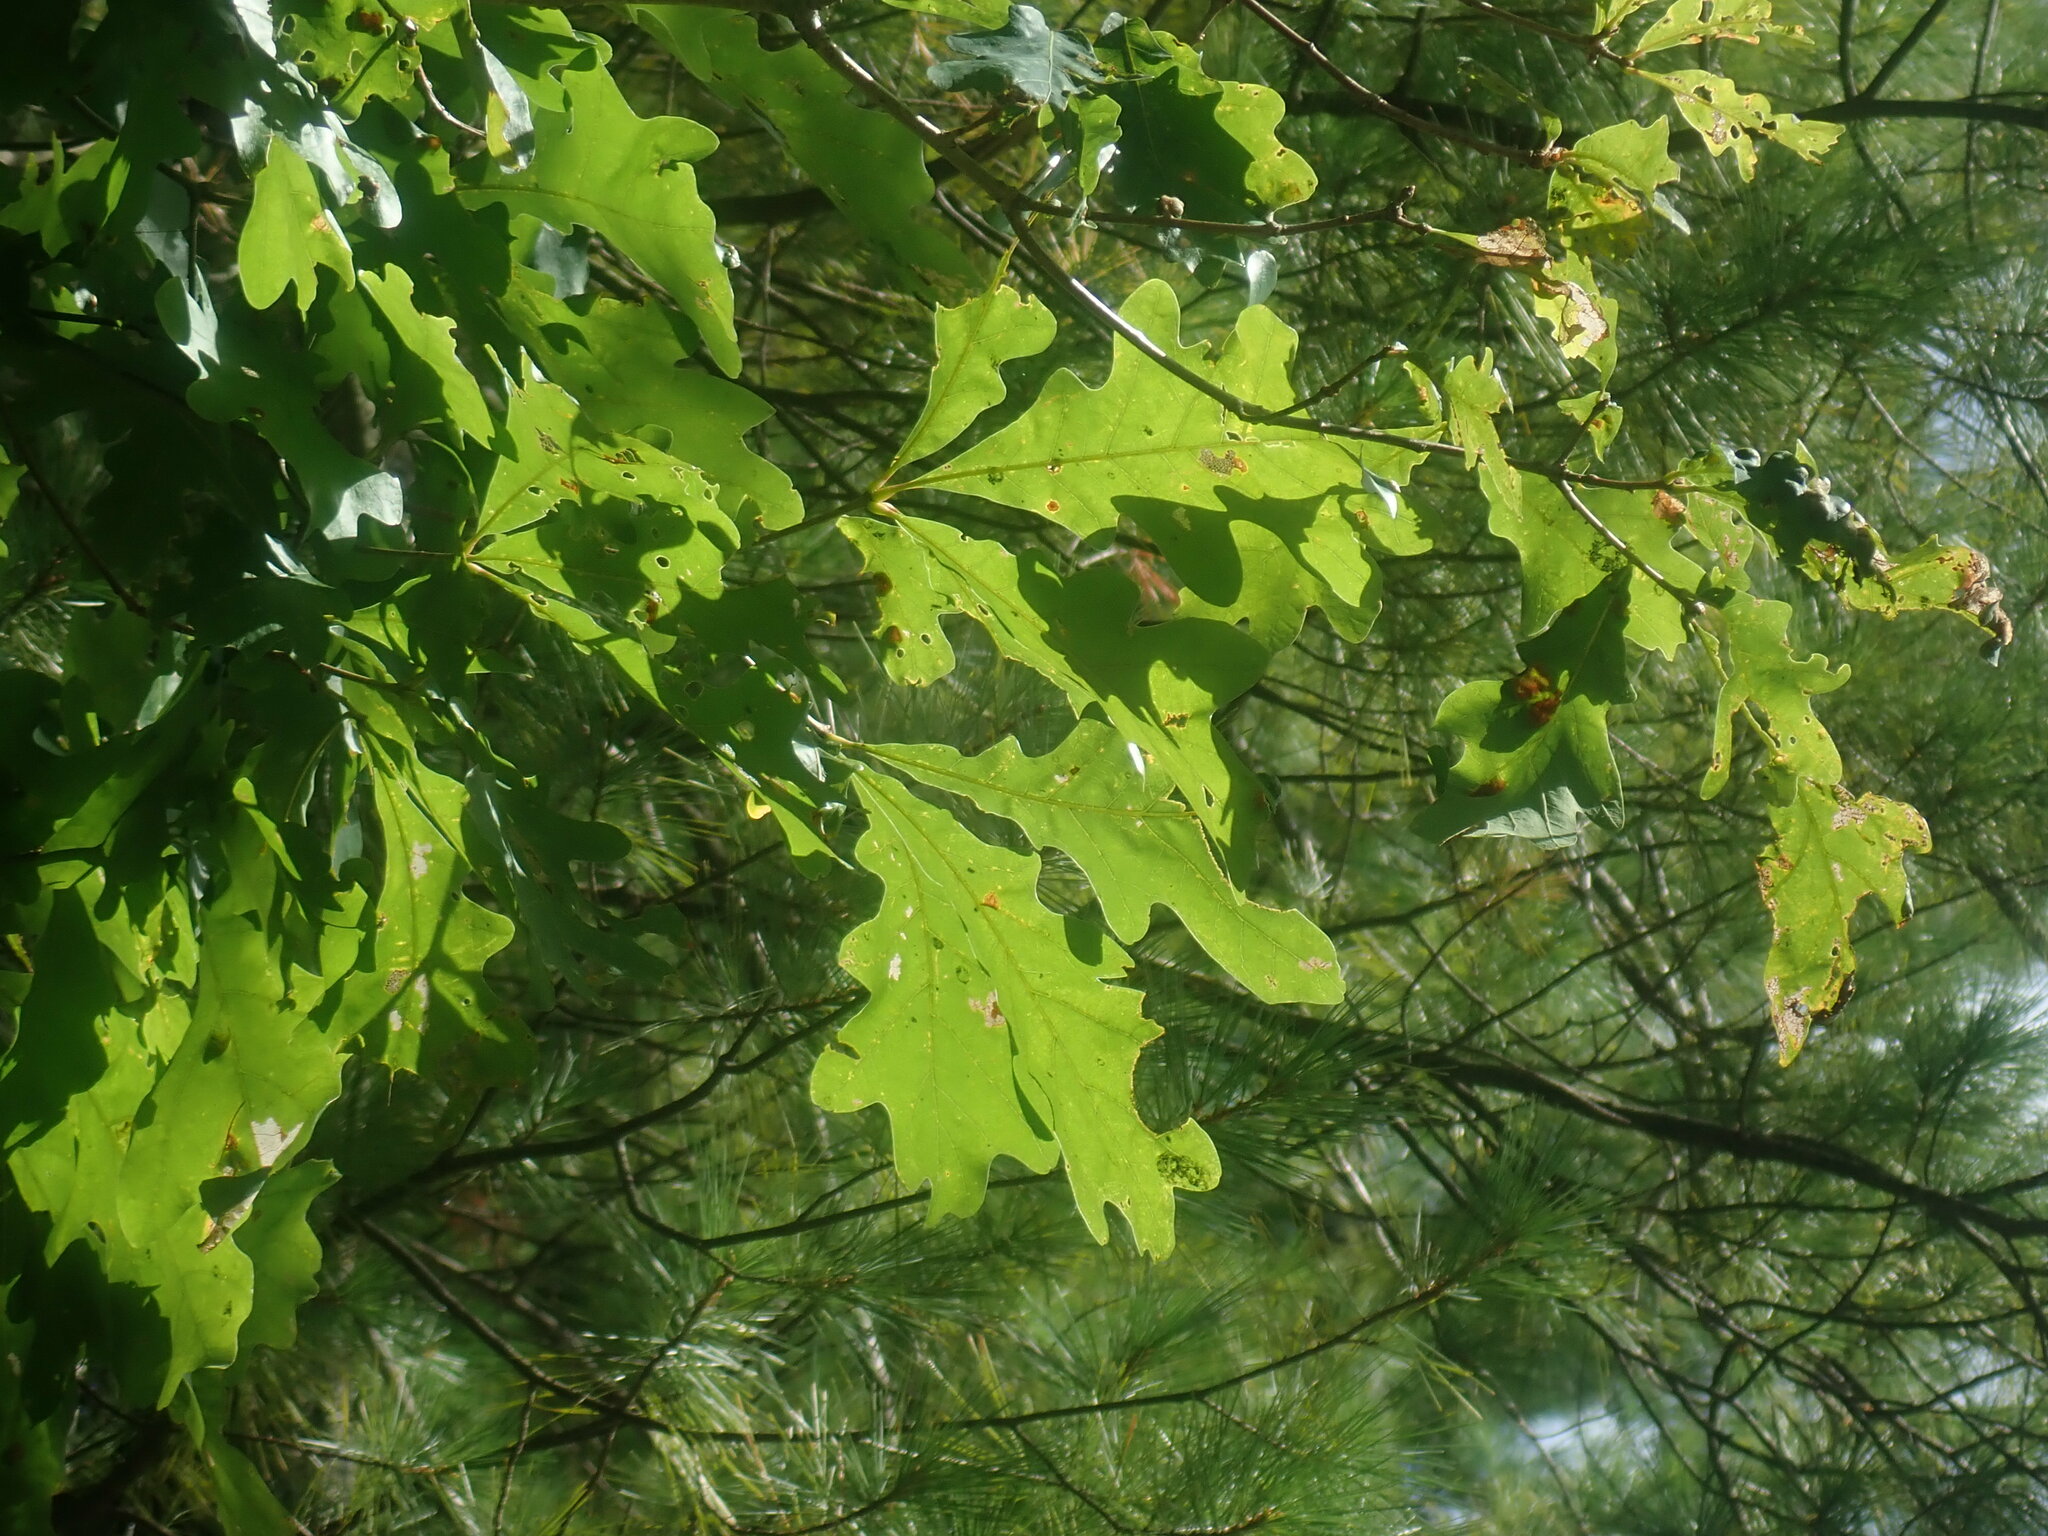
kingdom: Plantae
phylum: Tracheophyta
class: Magnoliopsida
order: Fagales
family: Fagaceae
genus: Quercus
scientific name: Quercus alba
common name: White oak
